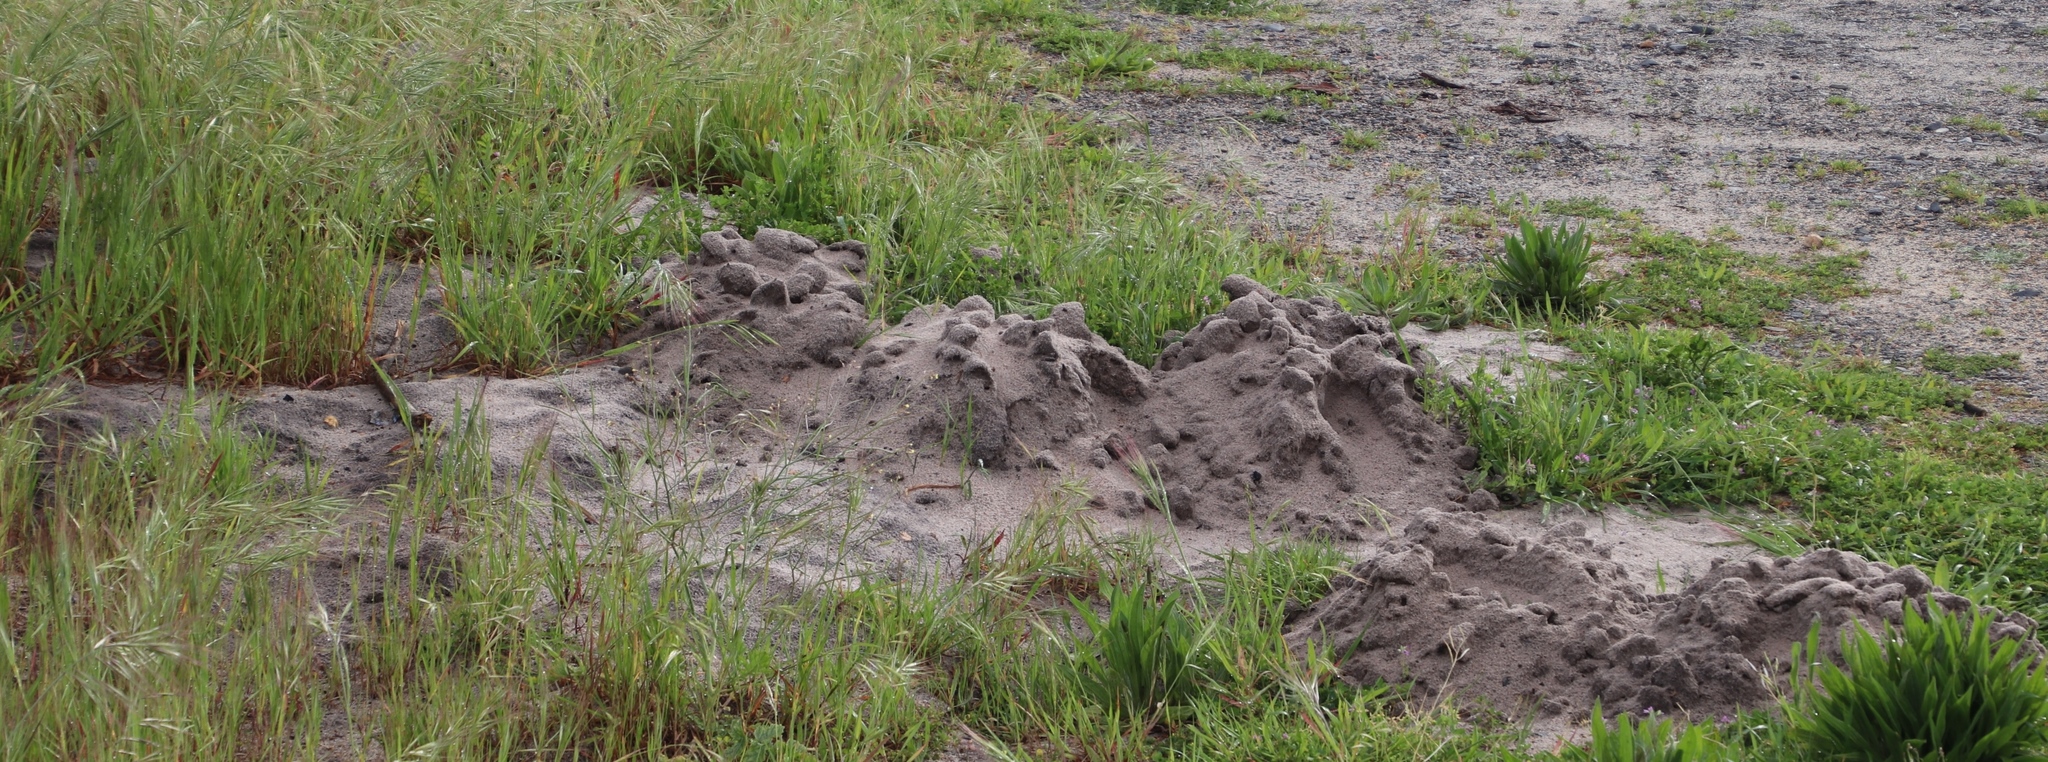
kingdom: Animalia
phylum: Chordata
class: Mammalia
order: Rodentia
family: Bathyergidae
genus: Bathyergus
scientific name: Bathyergus suillus
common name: Cape dune mole rat
